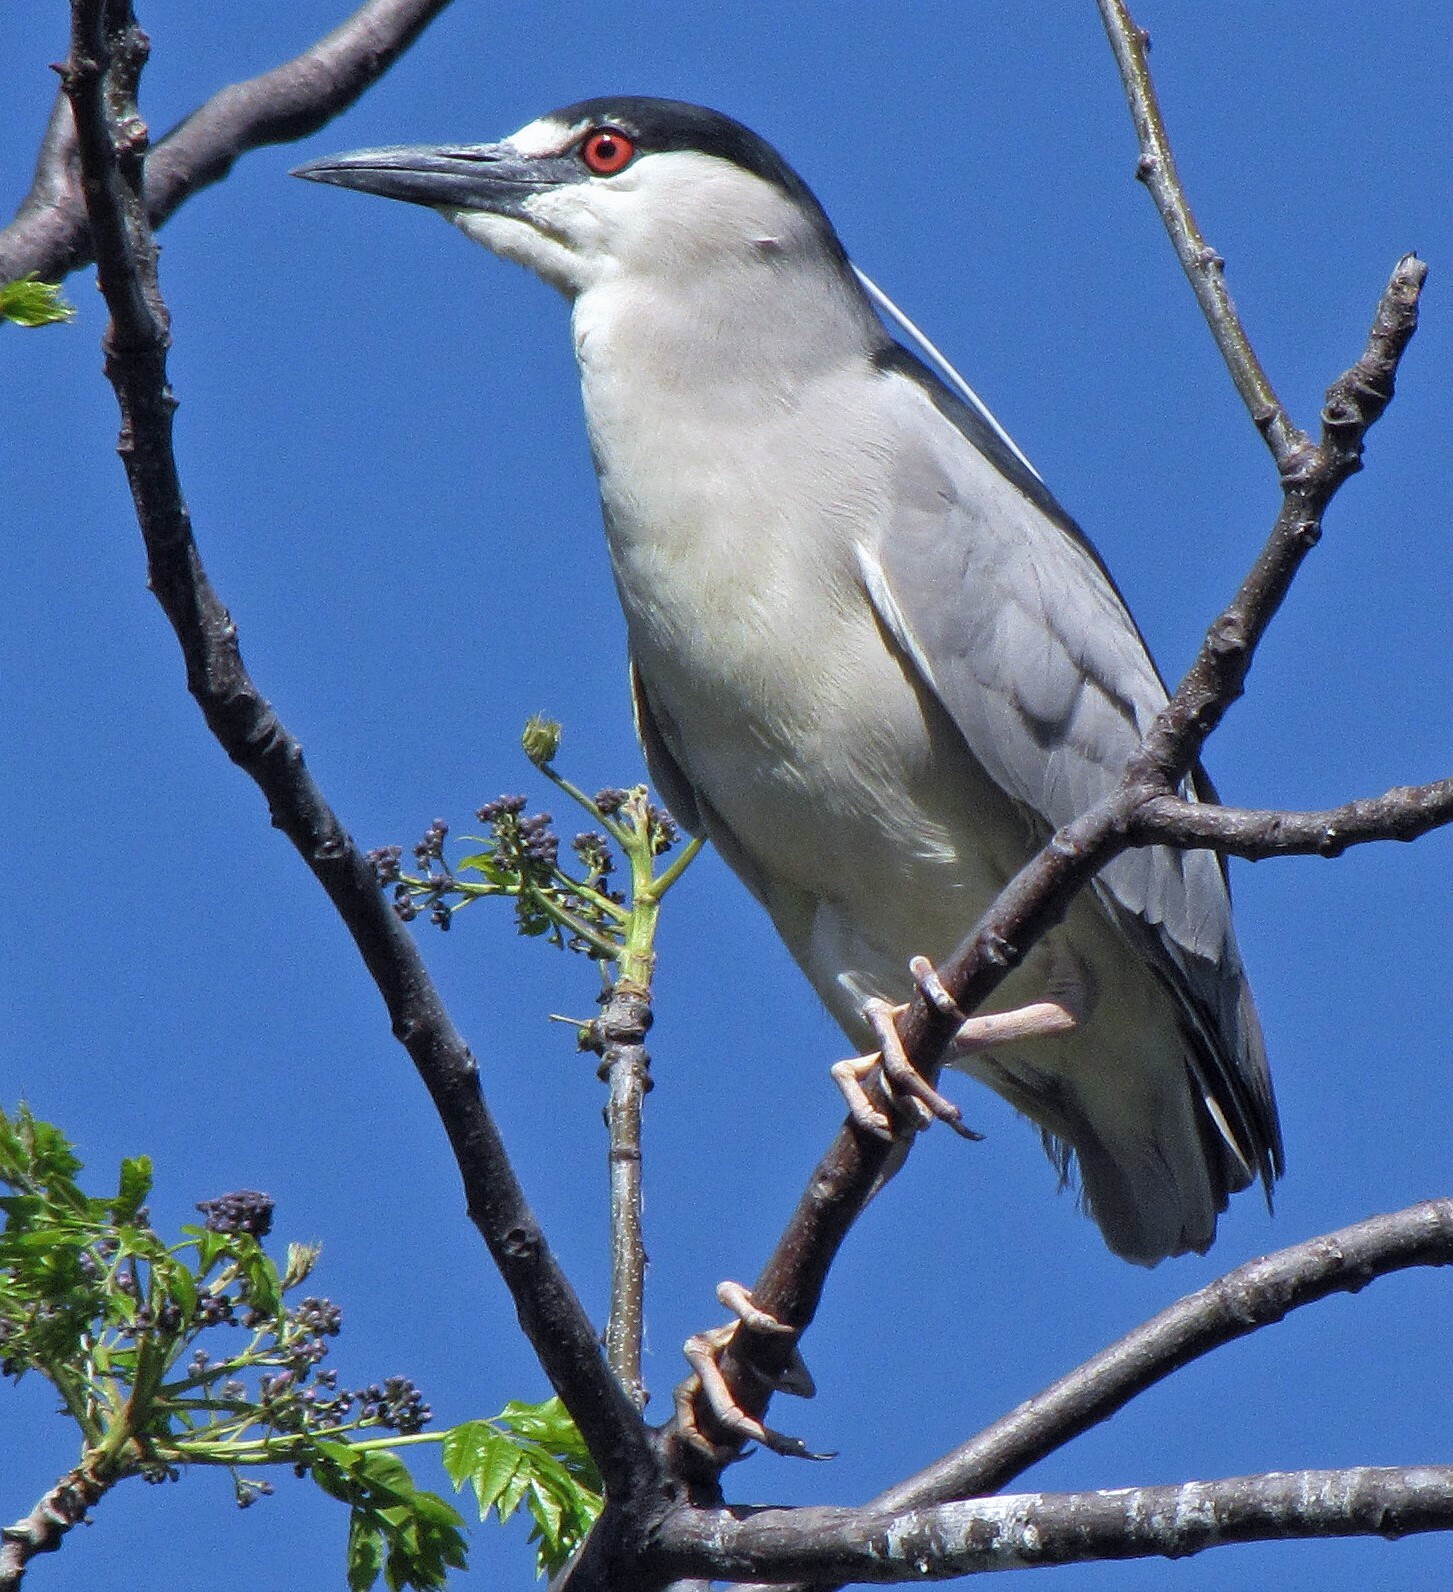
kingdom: Animalia
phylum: Chordata
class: Aves
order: Pelecaniformes
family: Ardeidae
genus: Nycticorax
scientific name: Nycticorax nycticorax
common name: Black-crowned night heron
